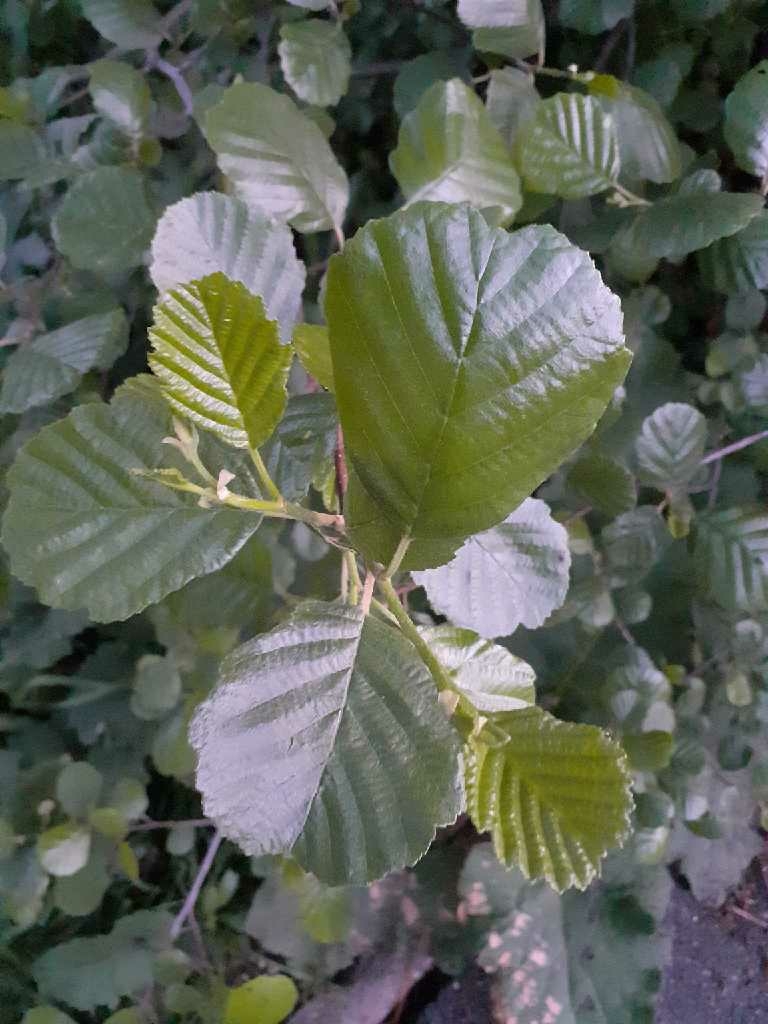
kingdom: Plantae
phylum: Tracheophyta
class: Magnoliopsida
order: Fagales
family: Betulaceae
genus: Alnus
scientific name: Alnus glutinosa
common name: Black alder
